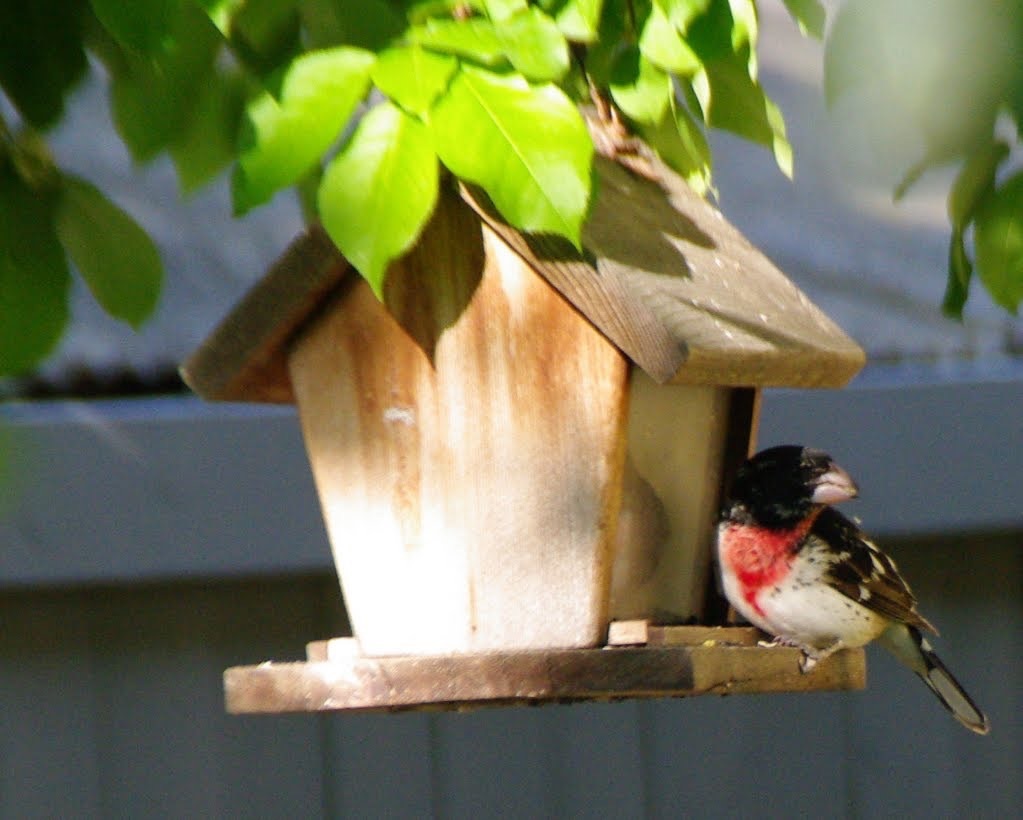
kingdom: Animalia
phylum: Chordata
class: Aves
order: Passeriformes
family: Cardinalidae
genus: Pheucticus
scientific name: Pheucticus ludovicianus
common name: Rose-breasted grosbeak
